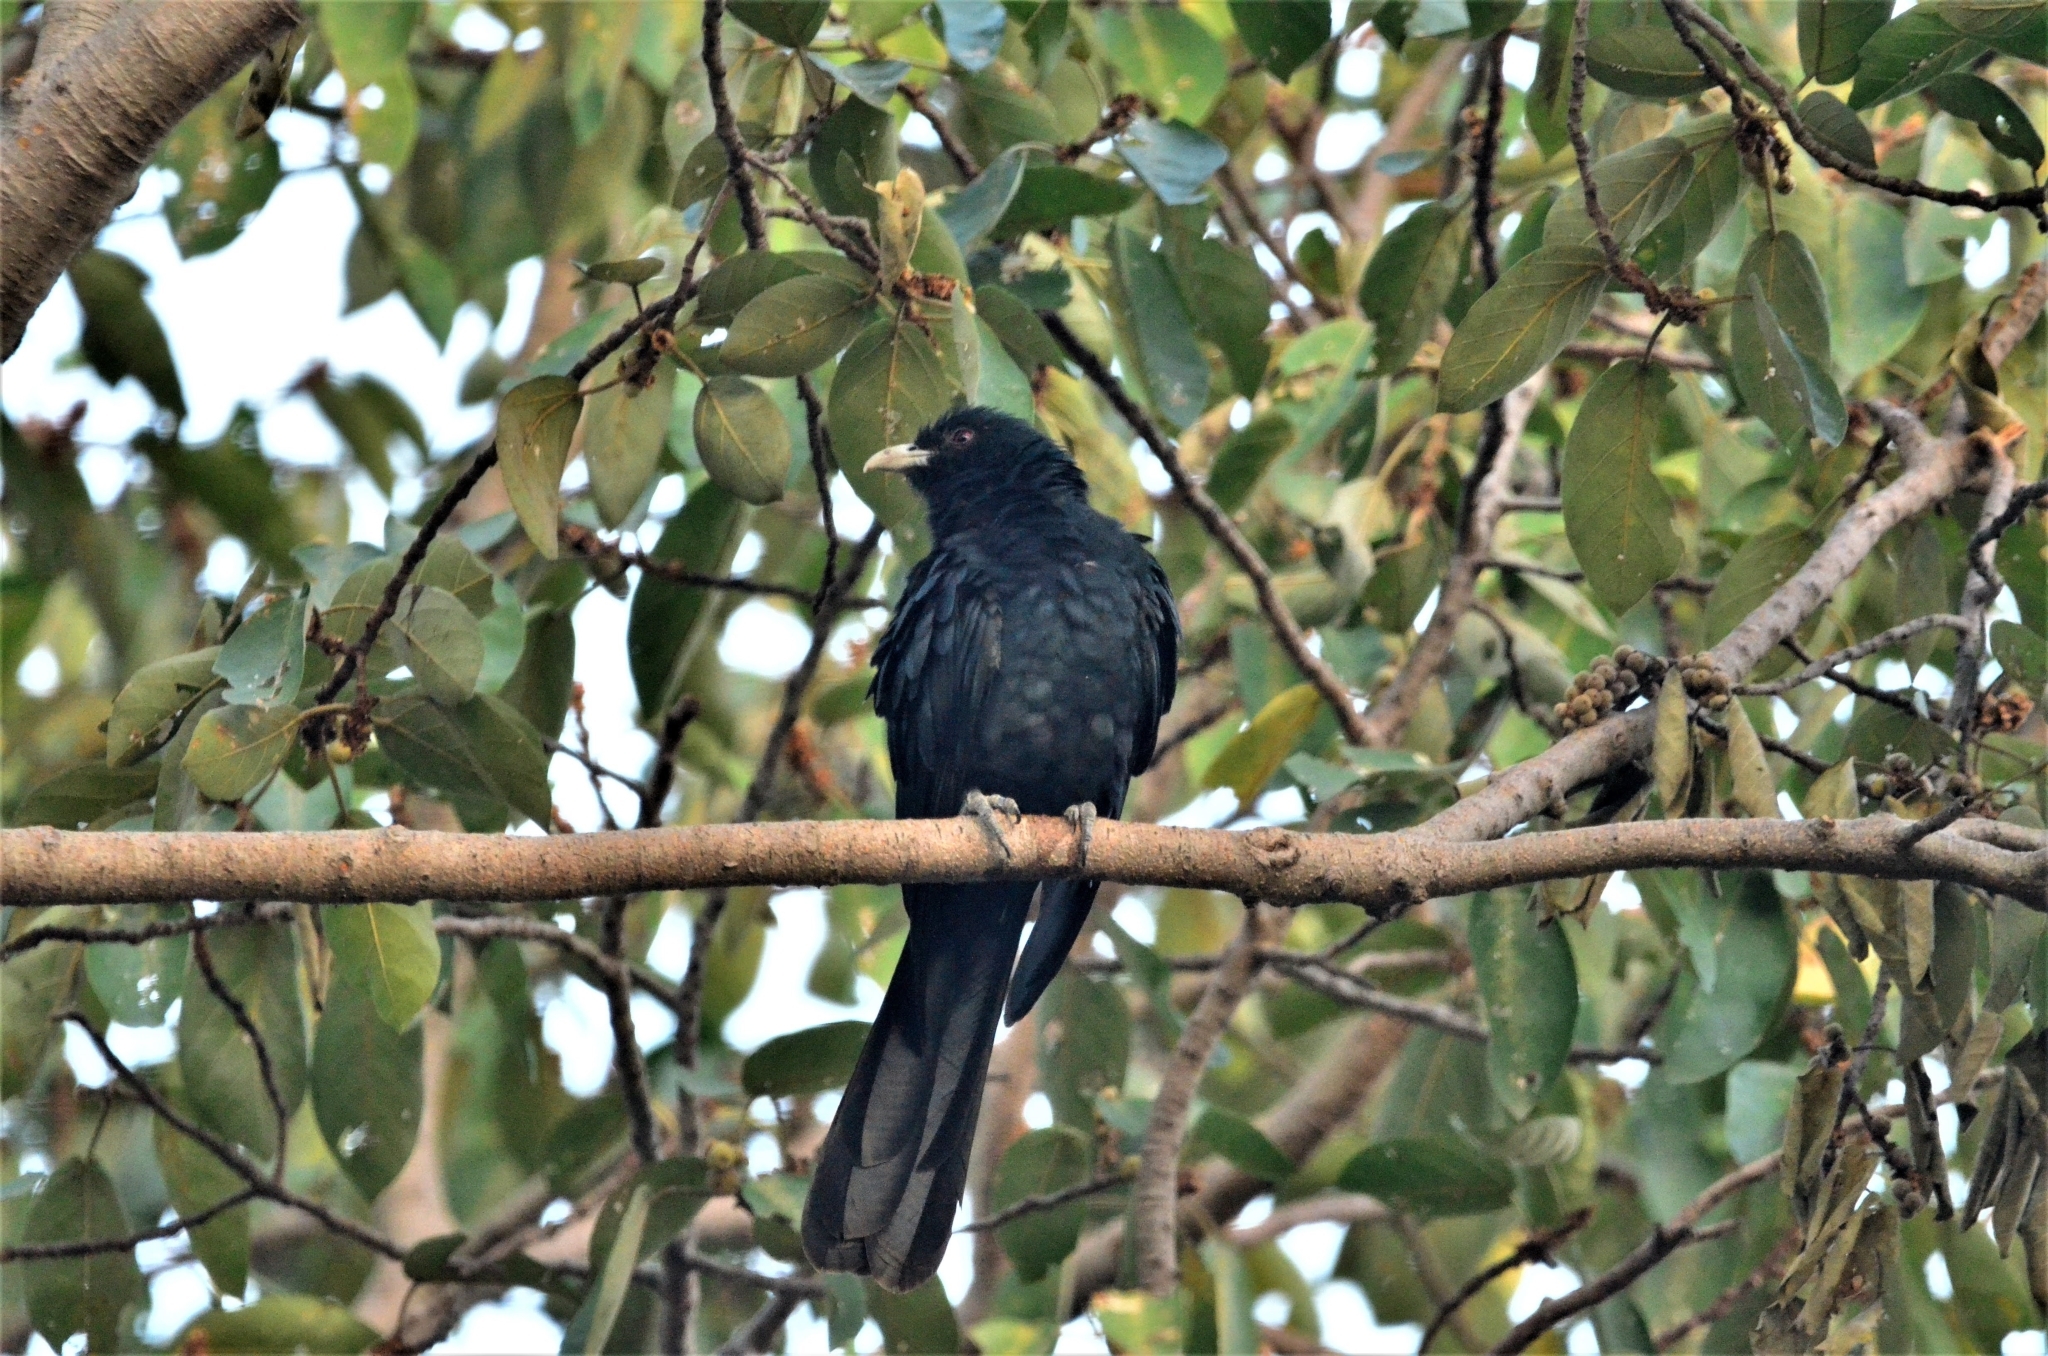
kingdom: Animalia
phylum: Chordata
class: Aves
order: Cuculiformes
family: Cuculidae
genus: Eudynamys
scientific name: Eudynamys scolopaceus
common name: Asian koel
